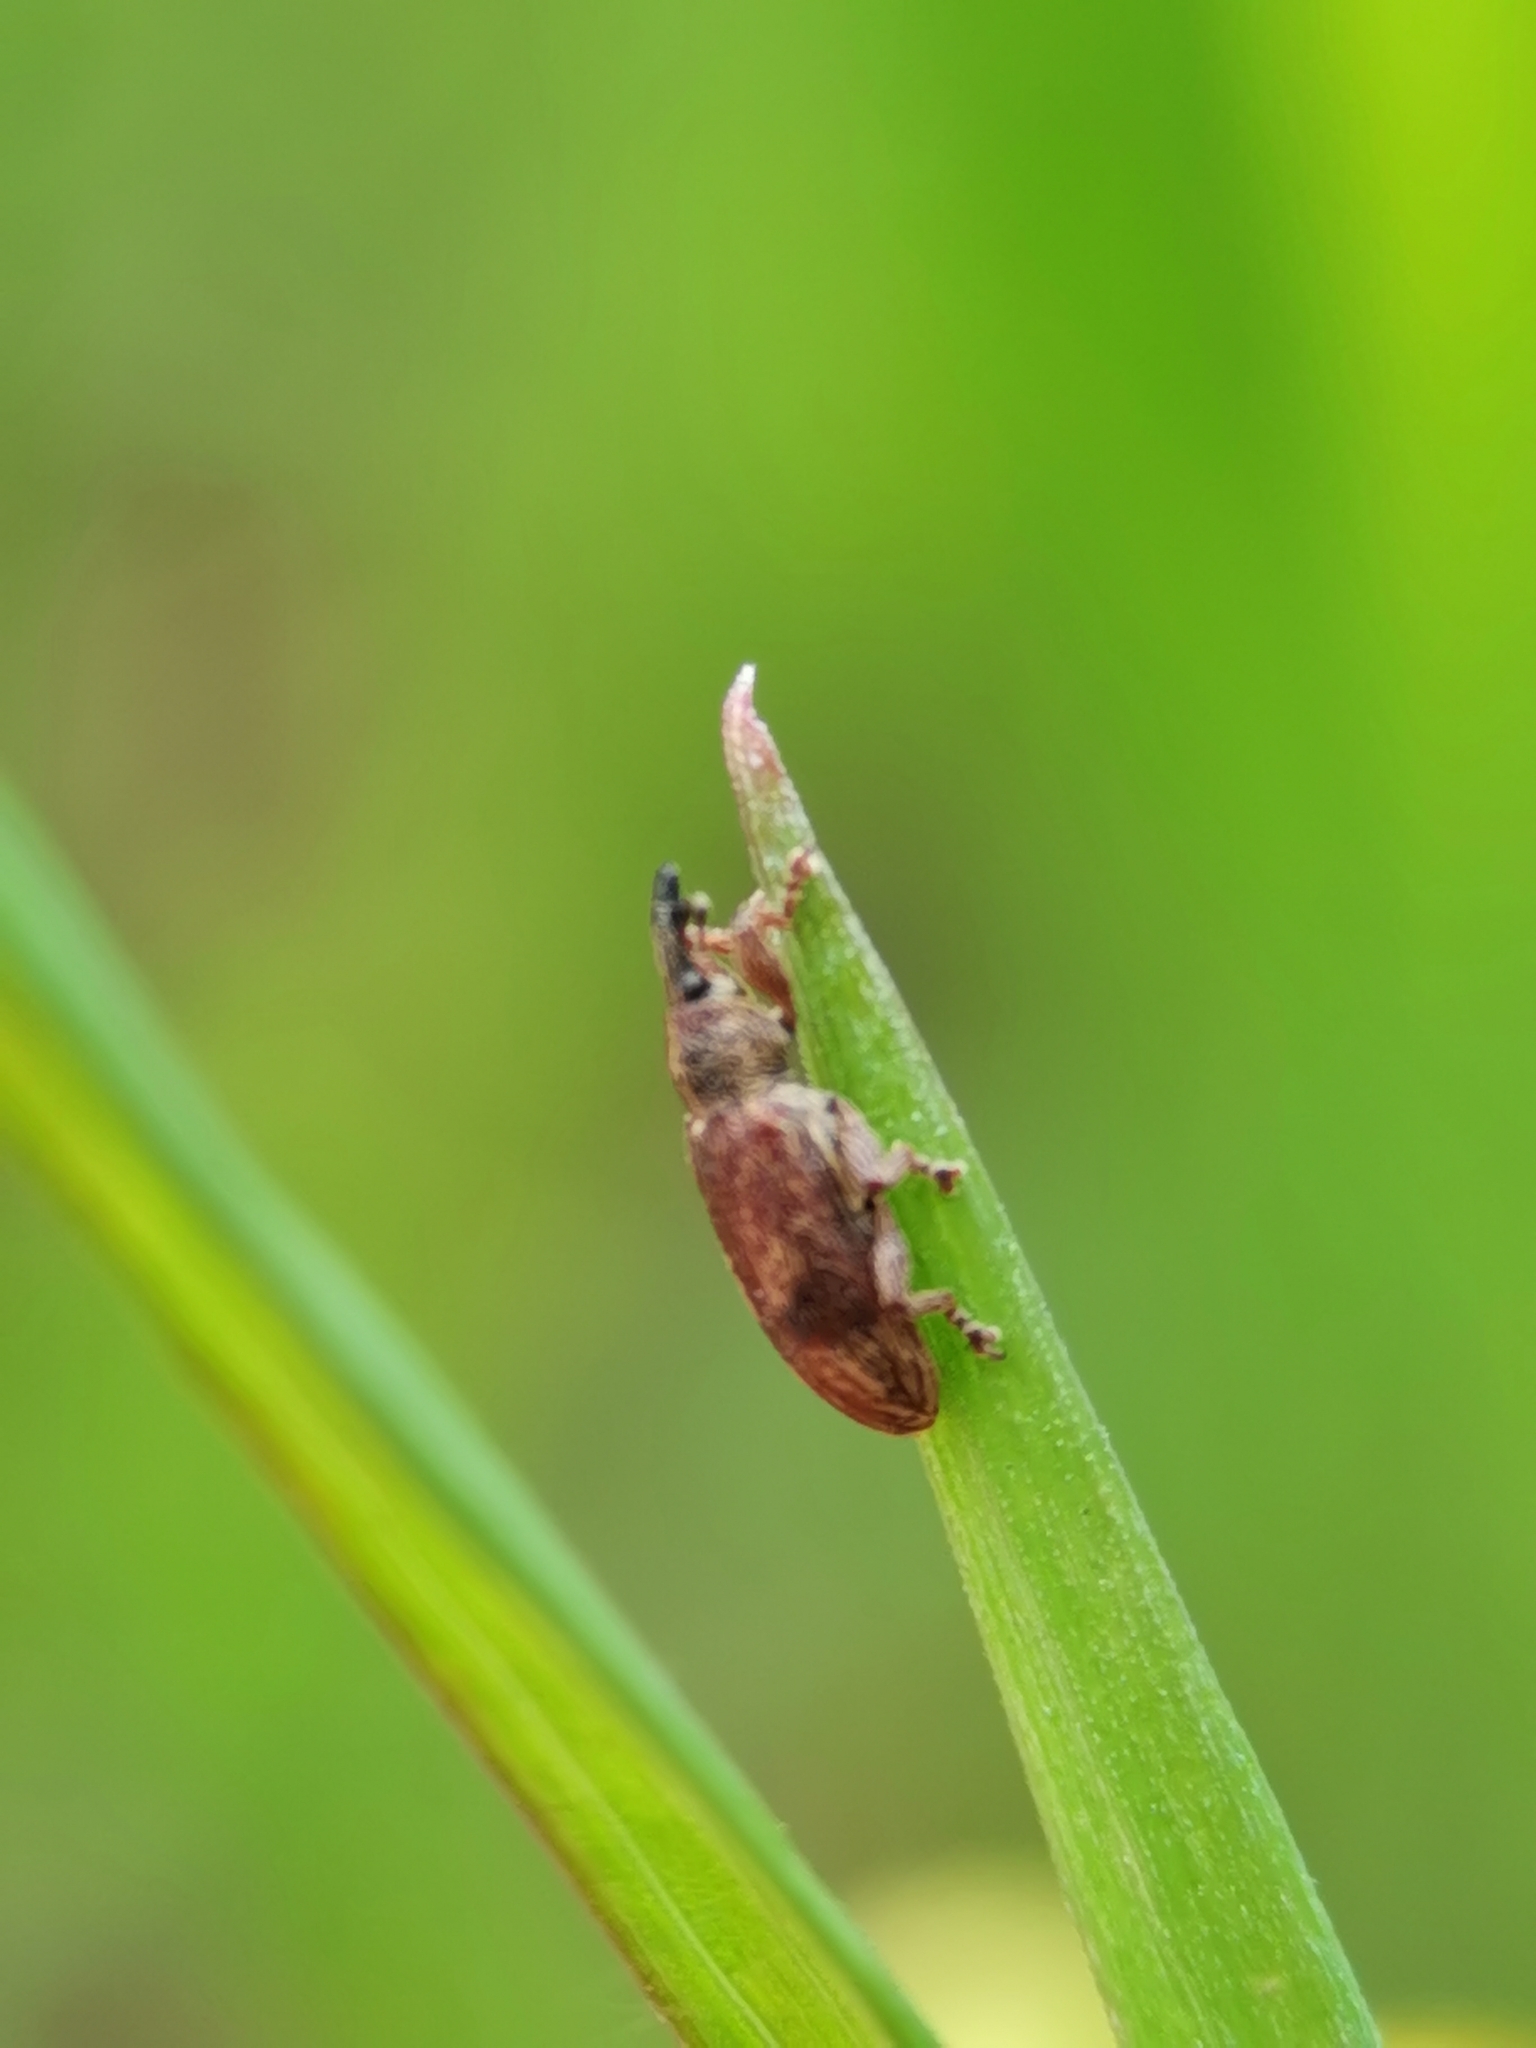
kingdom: Animalia
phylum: Arthropoda
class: Insecta
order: Coleoptera
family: Curculionidae
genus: Bradybatus
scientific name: Bradybatus creutzeri
